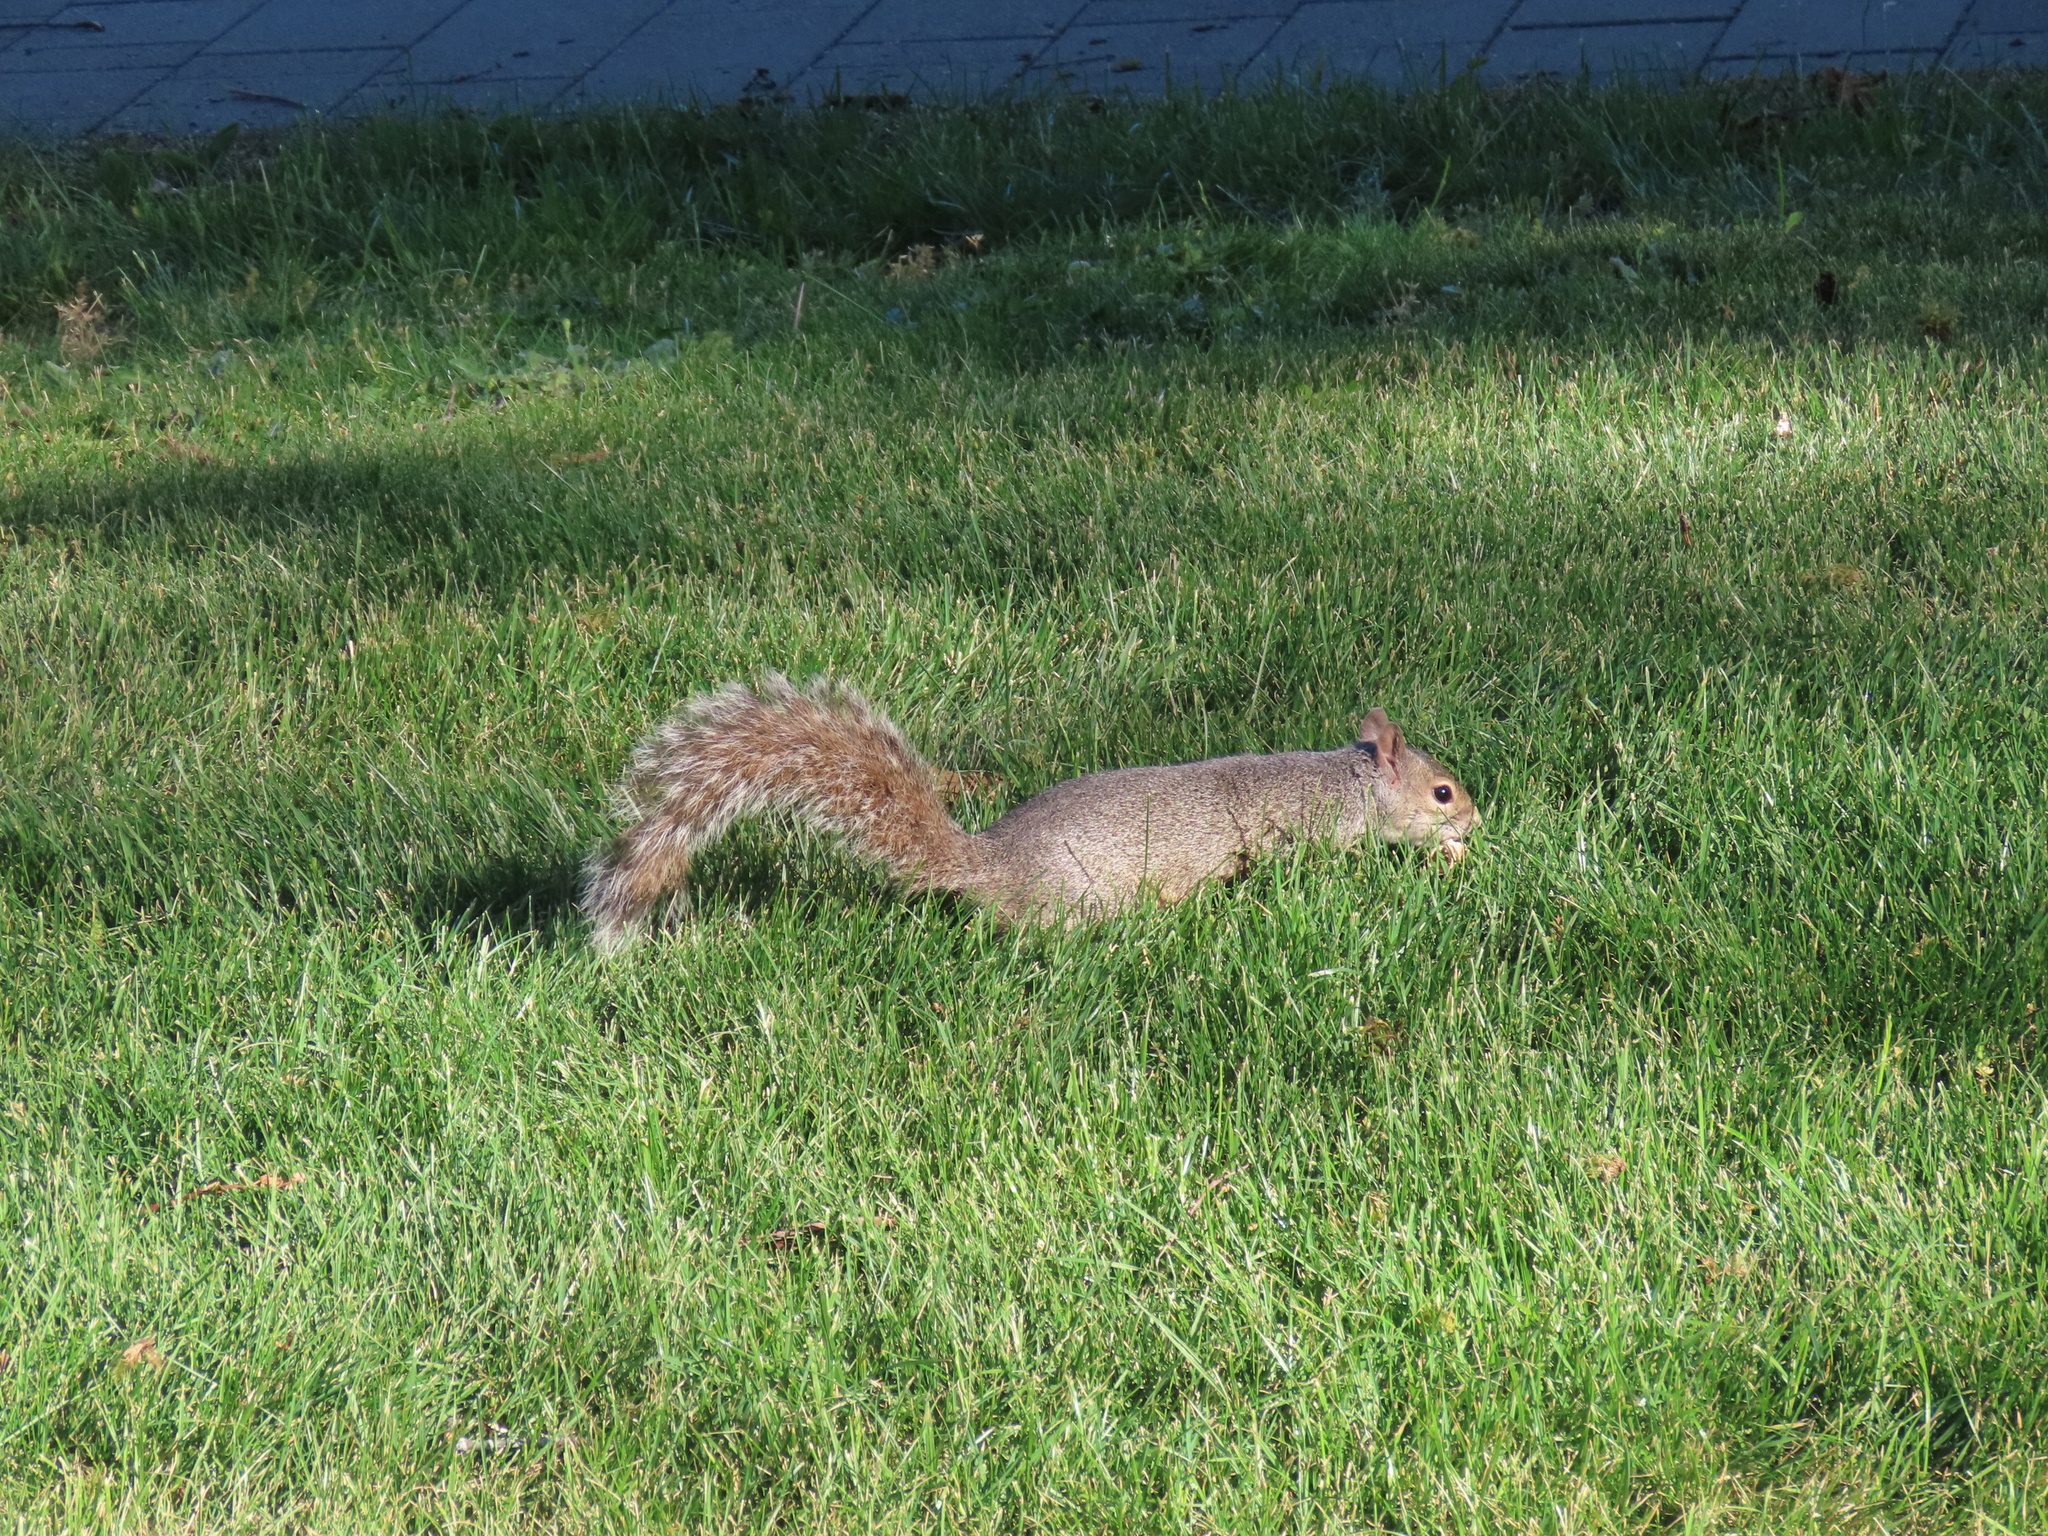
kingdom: Animalia
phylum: Chordata
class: Mammalia
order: Rodentia
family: Sciuridae
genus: Sciurus
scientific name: Sciurus carolinensis
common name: Eastern gray squirrel
